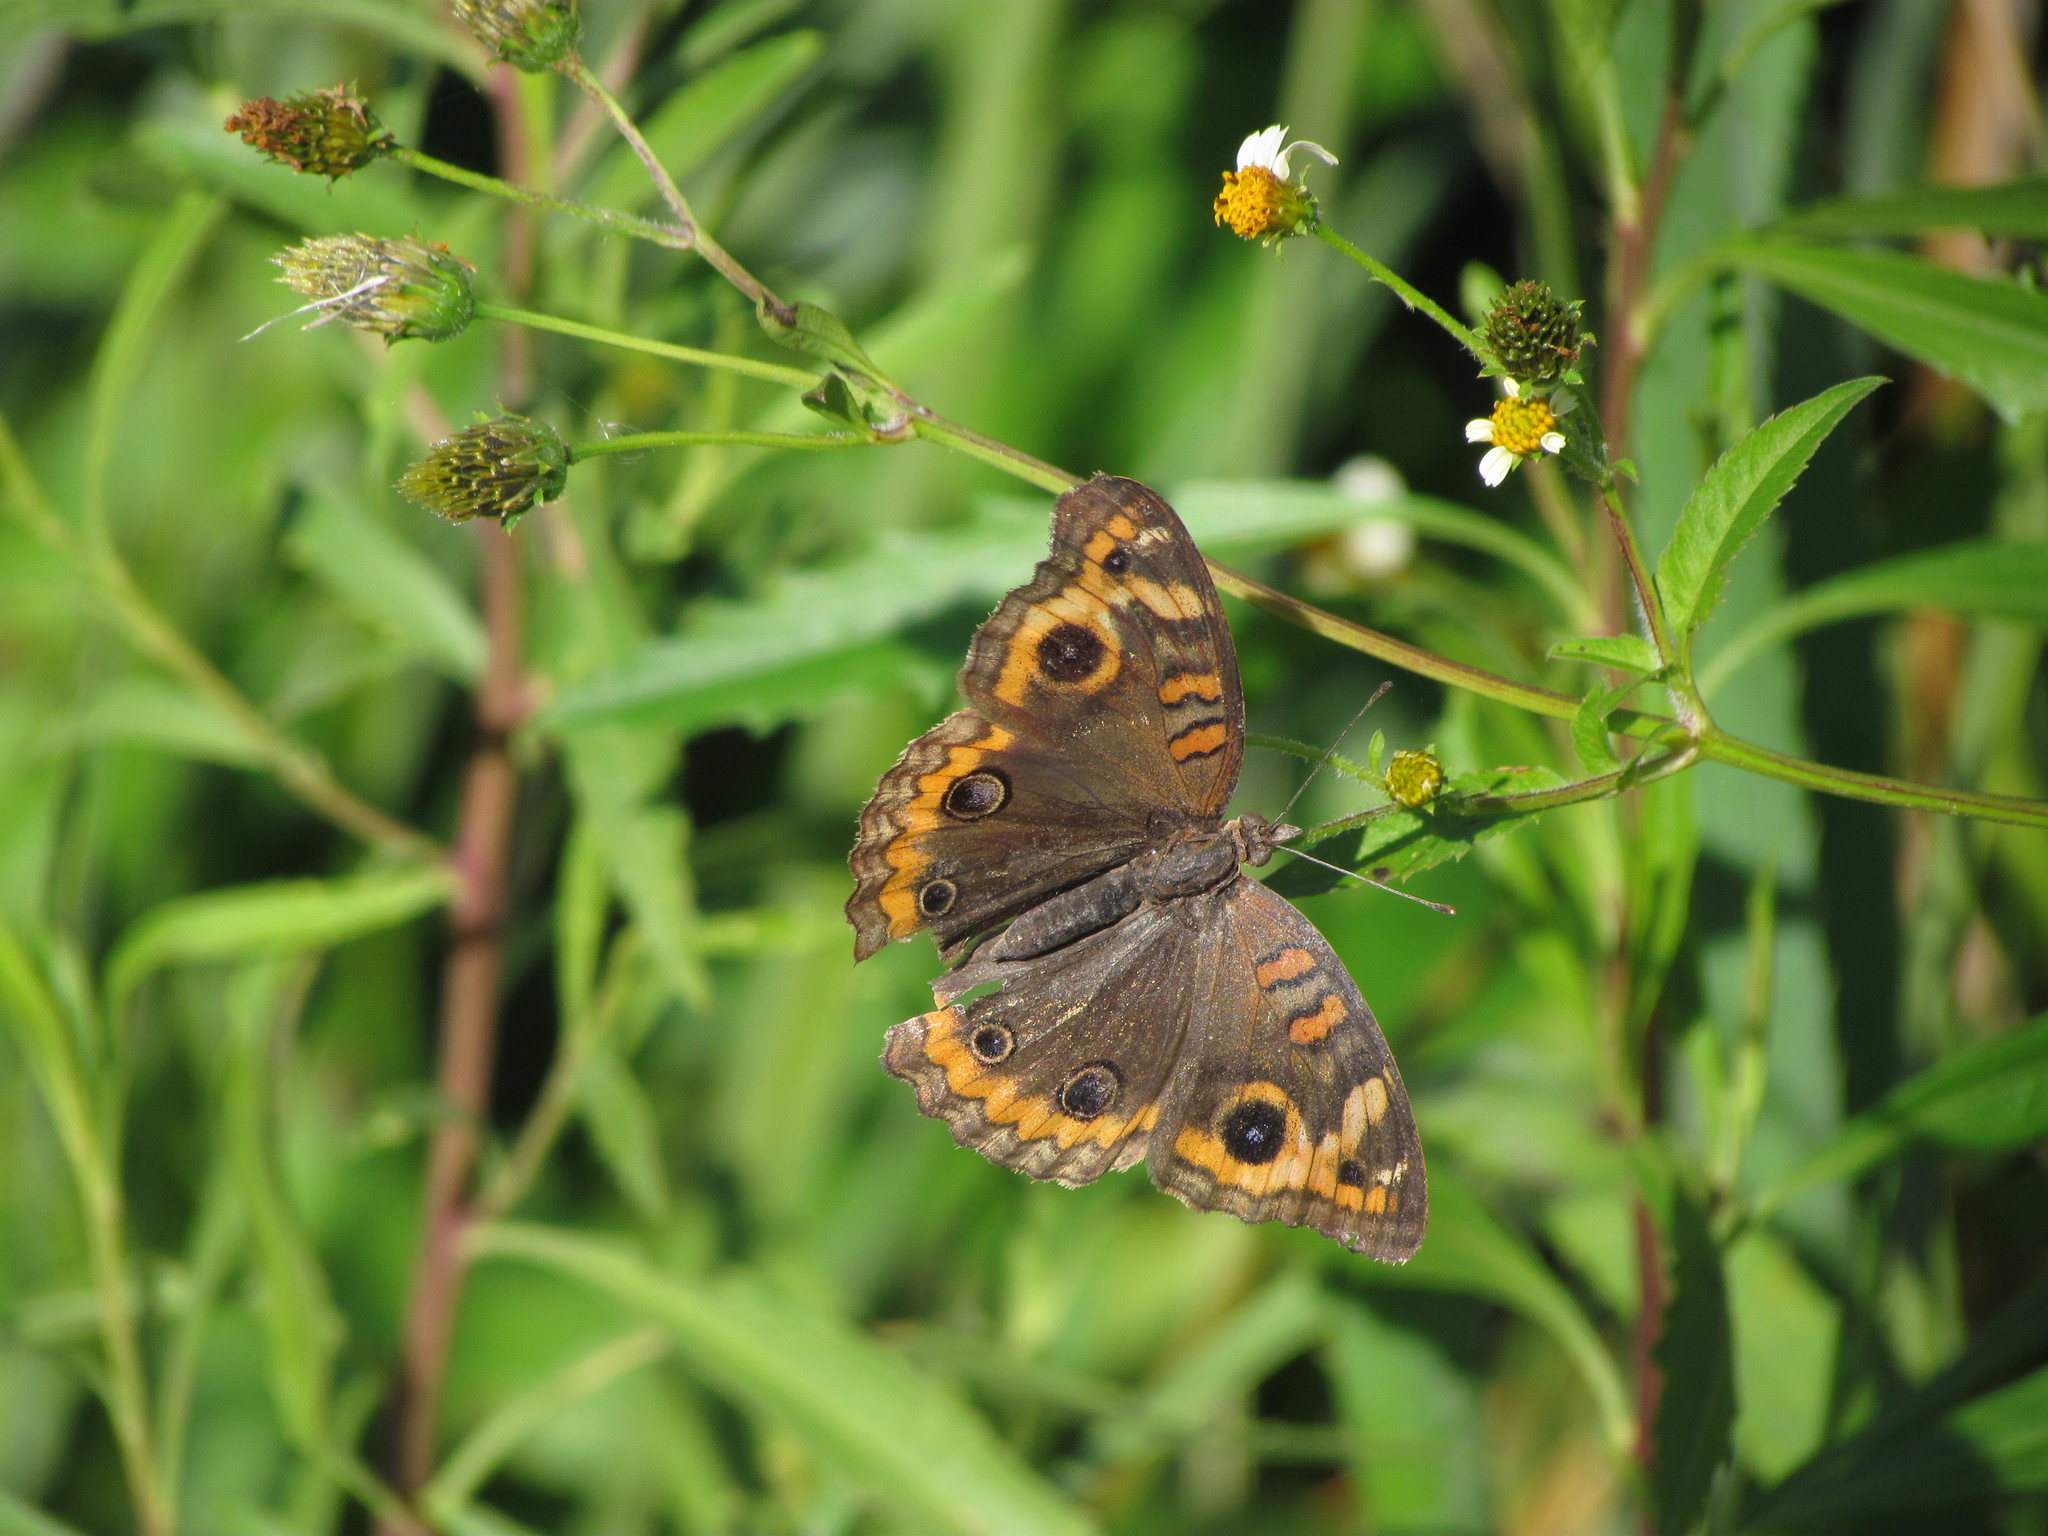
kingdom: Animalia
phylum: Arthropoda
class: Insecta
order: Lepidoptera
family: Nymphalidae
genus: Junonia
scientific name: Junonia lavinia
